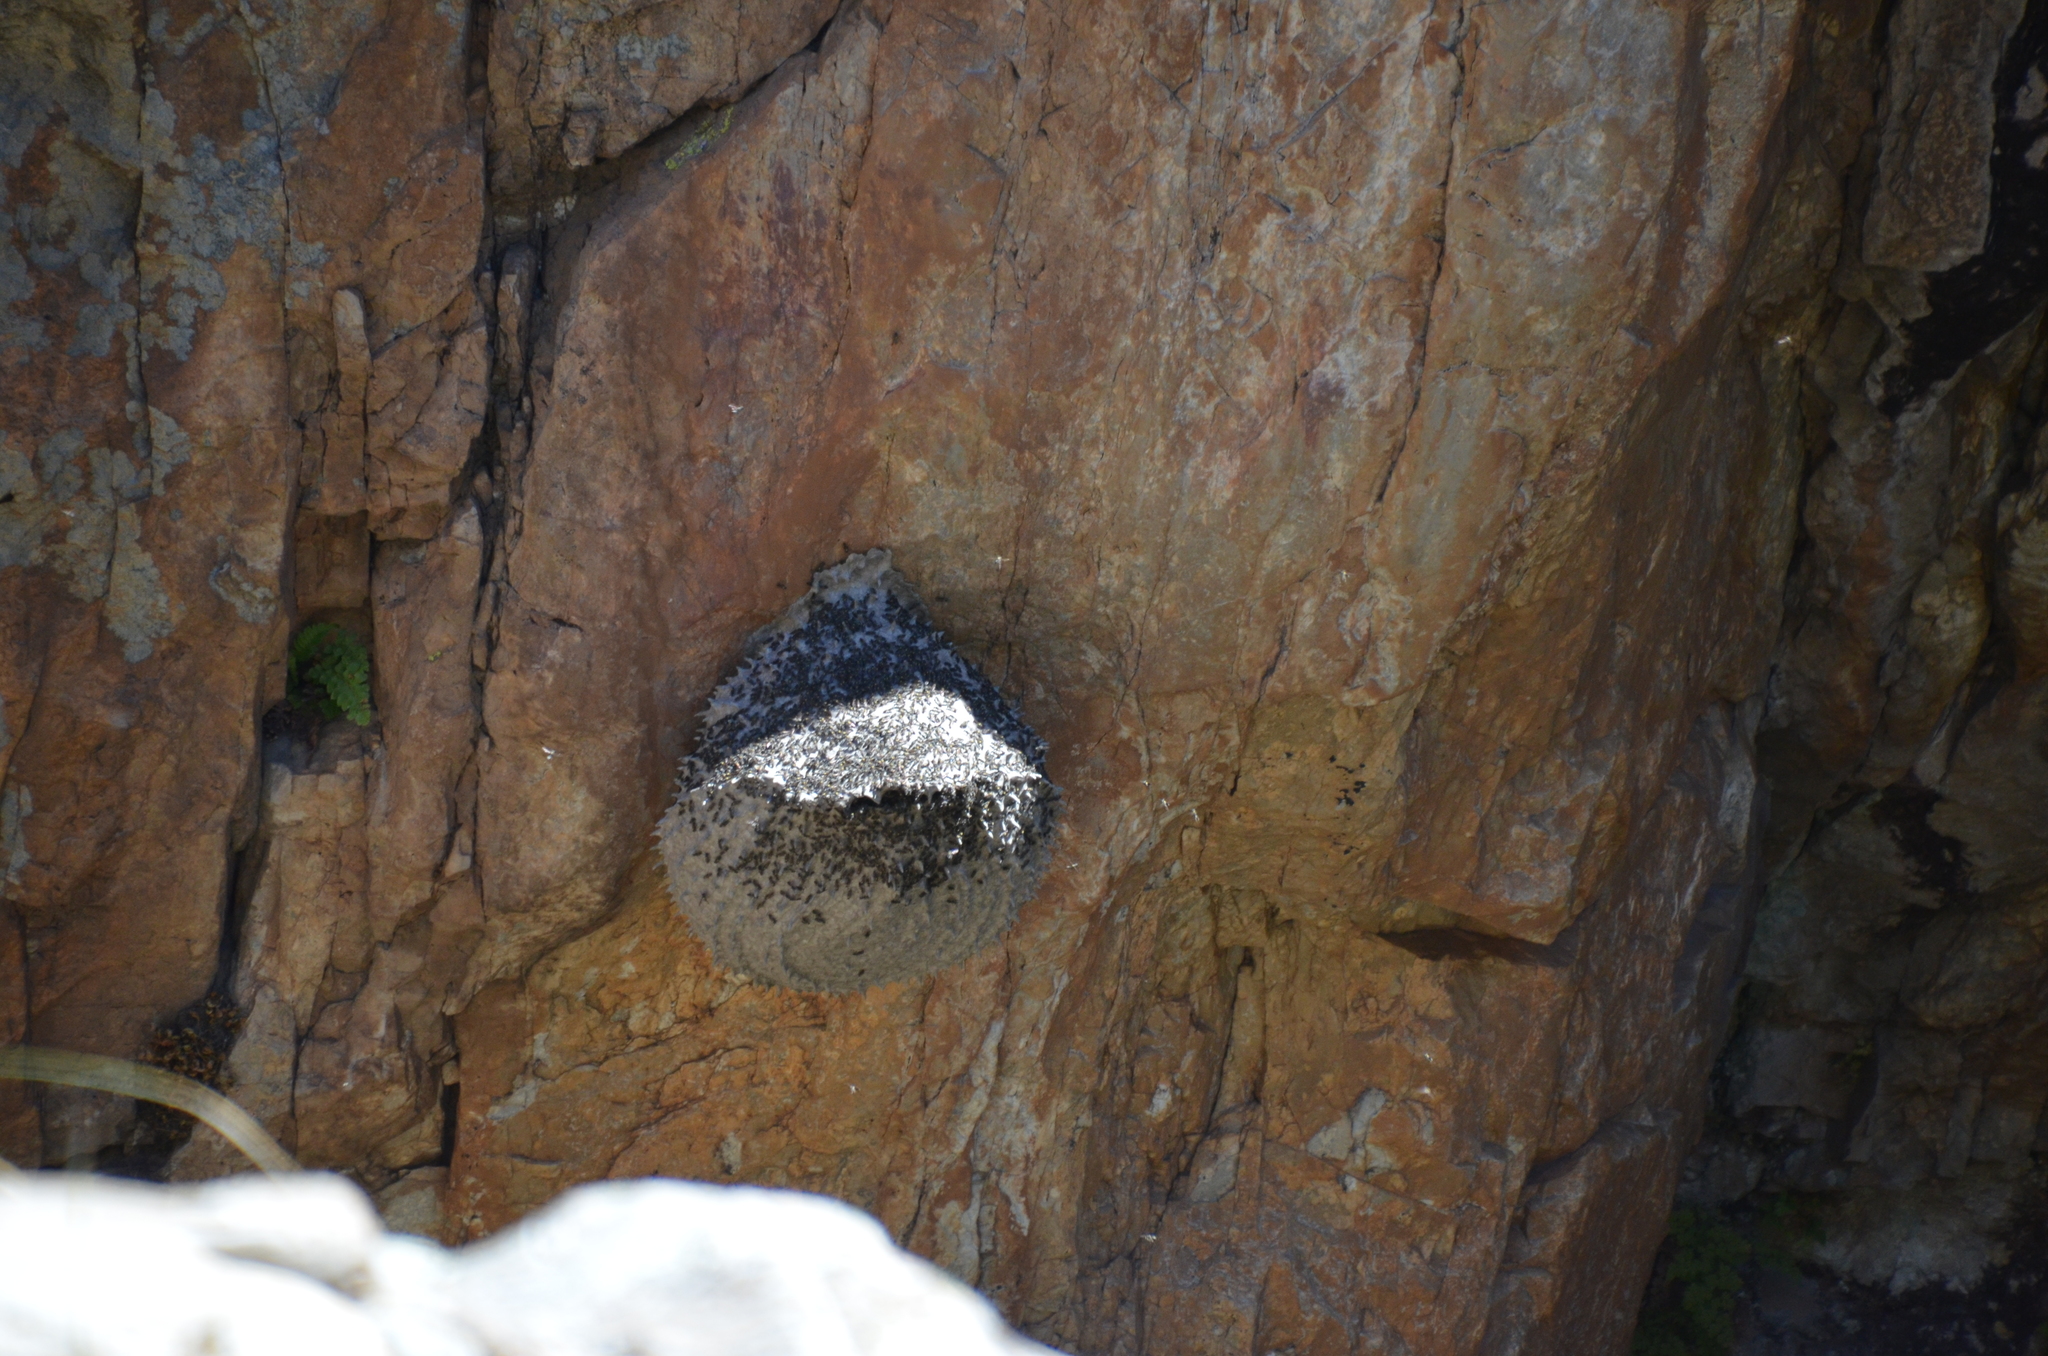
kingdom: Animalia
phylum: Arthropoda
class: Insecta
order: Hymenoptera
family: Eumenidae
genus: Polybia
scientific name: Polybia scutellaris
